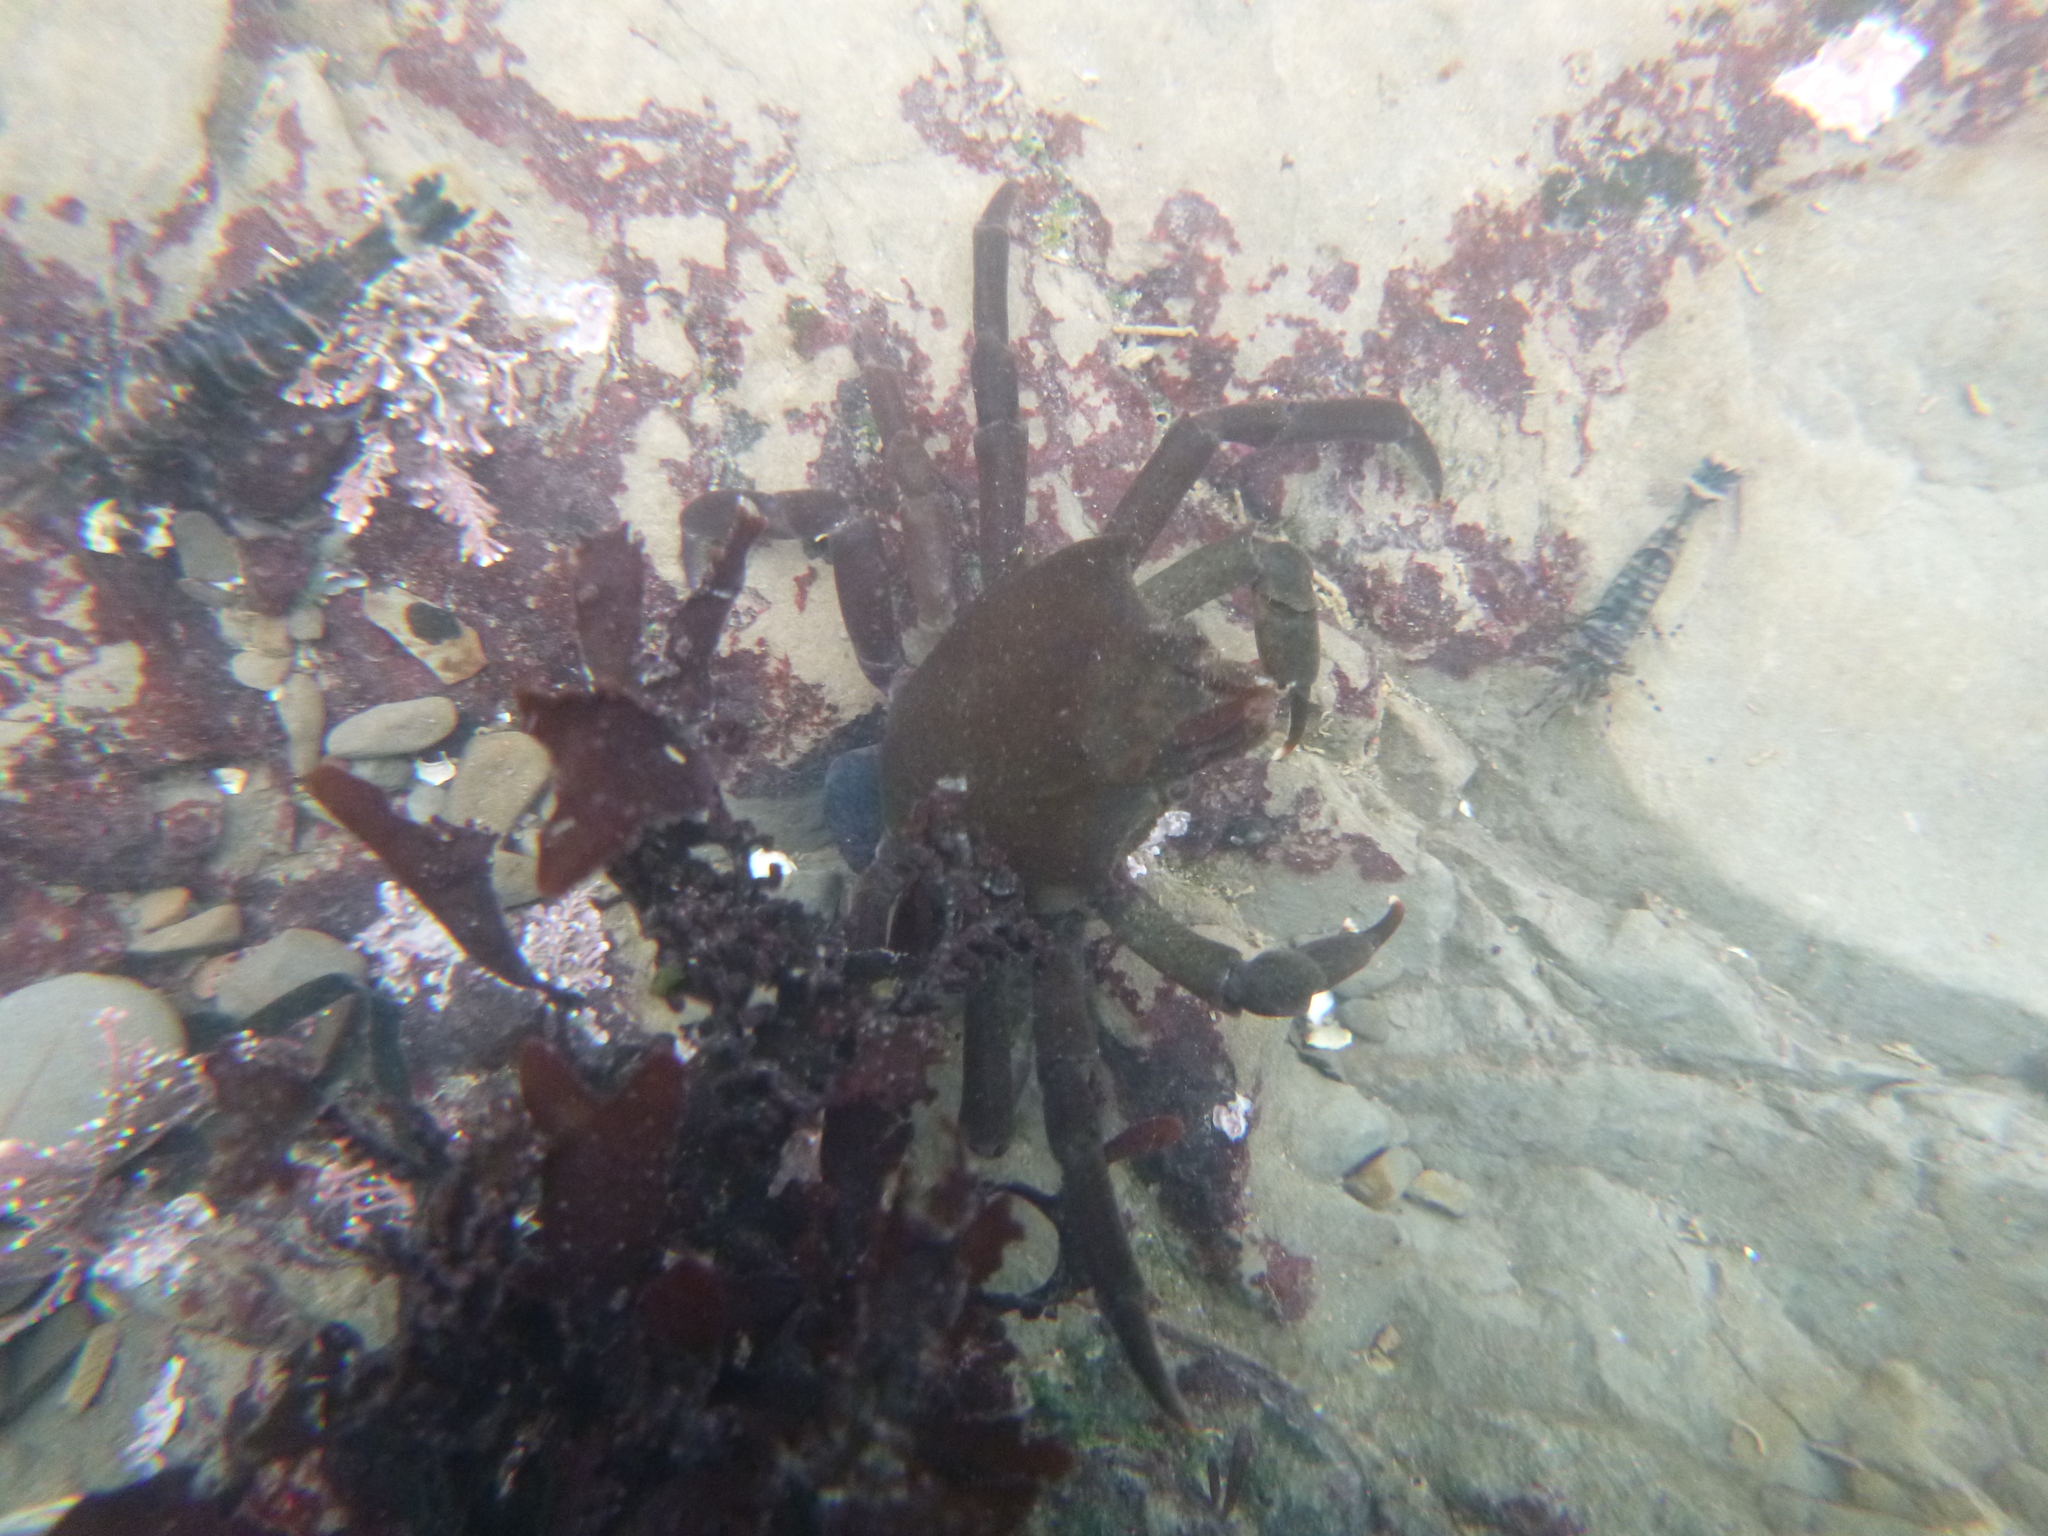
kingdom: Animalia
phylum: Arthropoda
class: Malacostraca
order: Decapoda
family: Epialtidae
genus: Pugettia
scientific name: Pugettia producta
